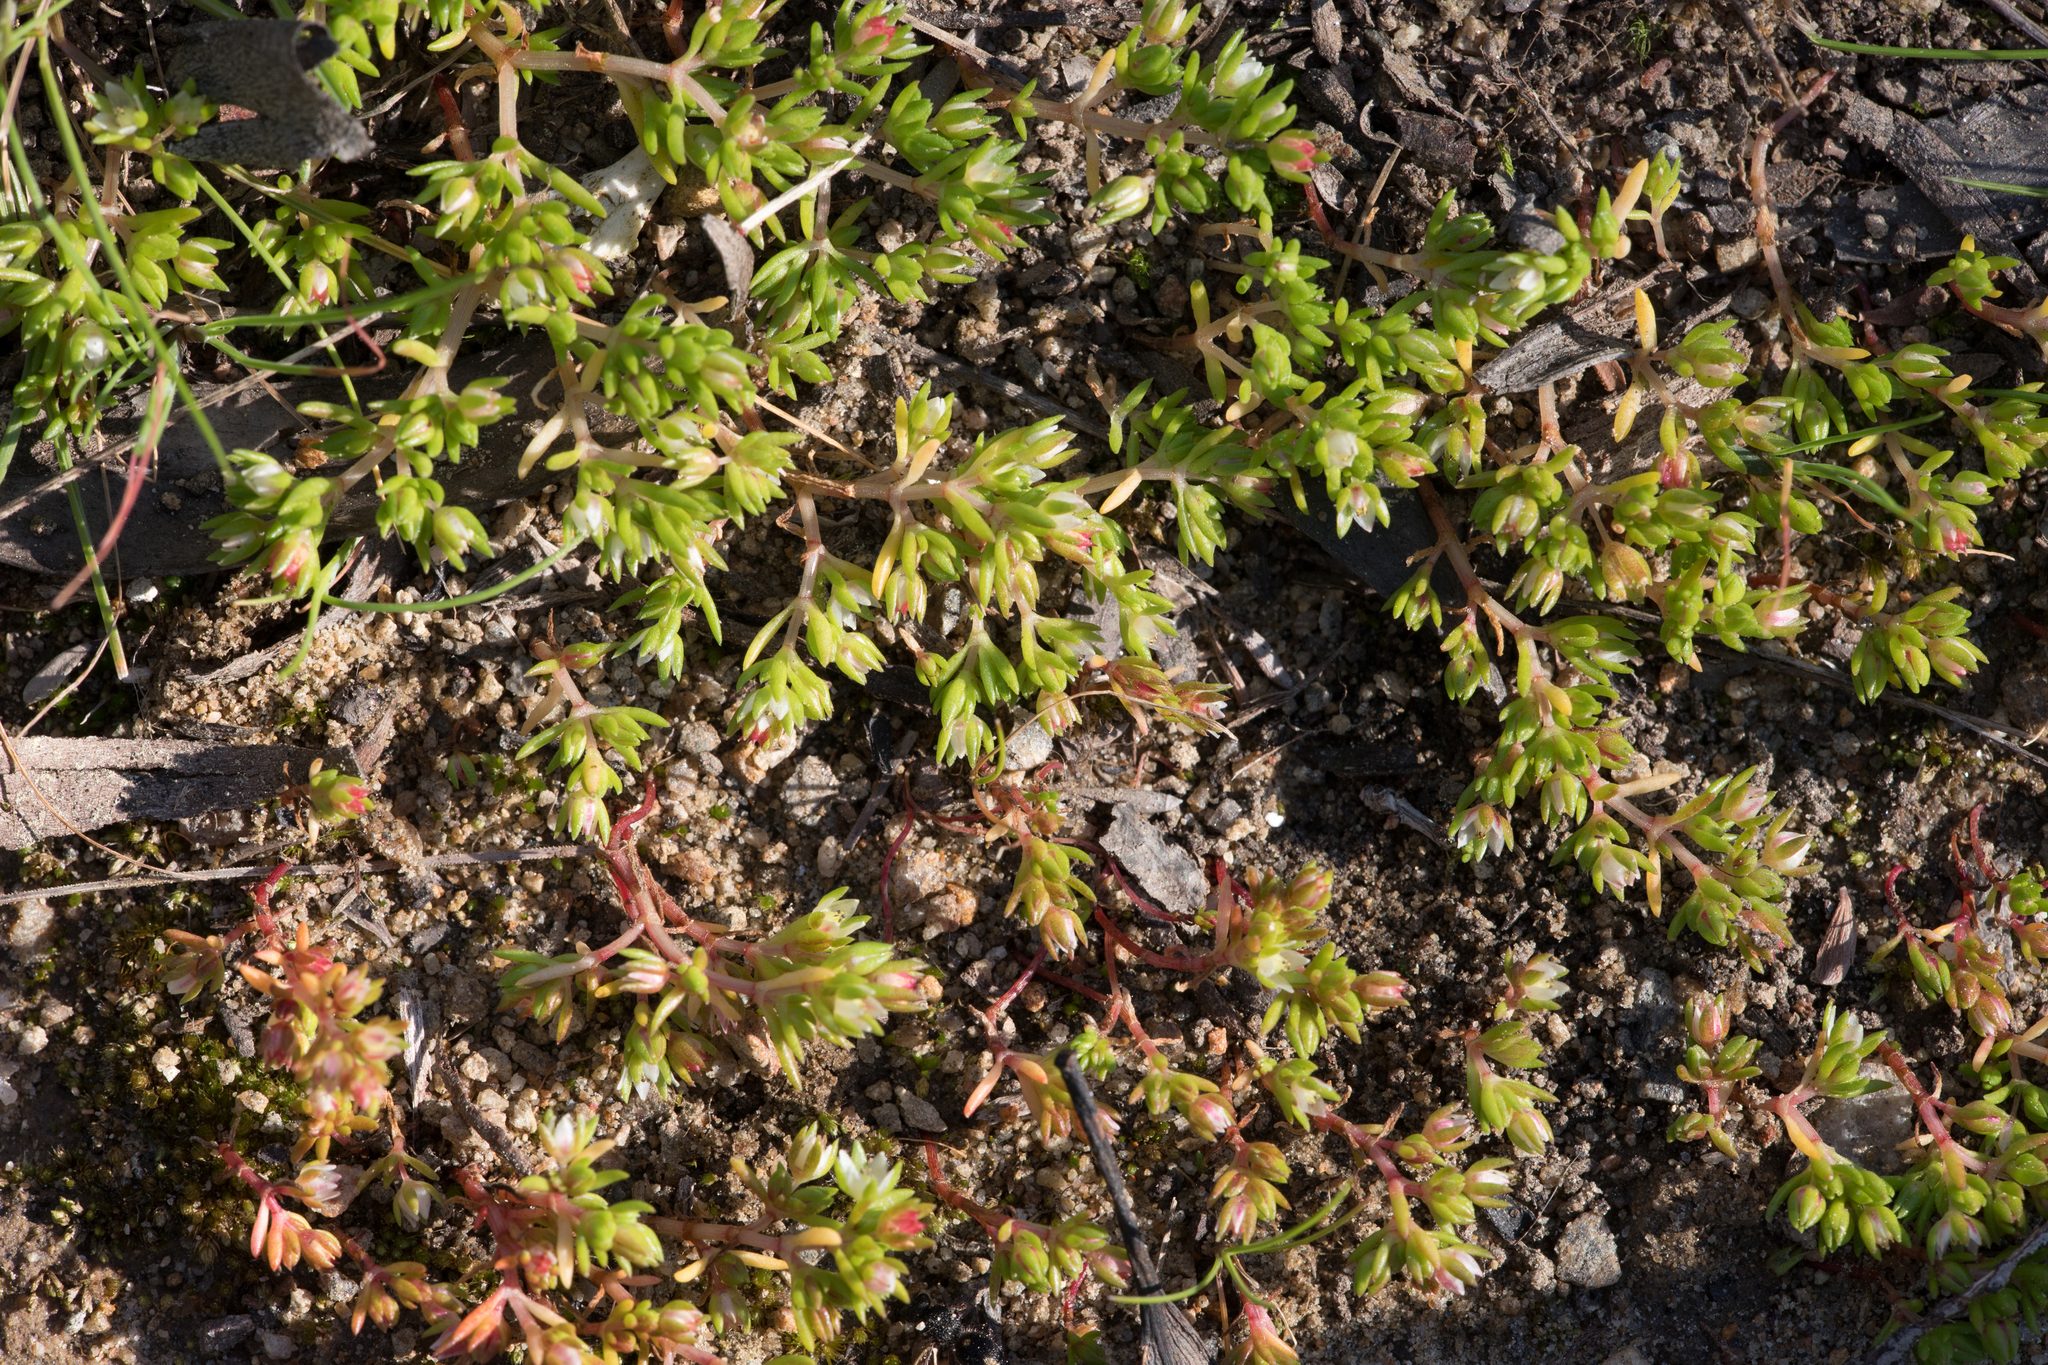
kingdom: Plantae
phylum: Tracheophyta
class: Magnoliopsida
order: Saxifragales
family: Crassulaceae
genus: Crassula
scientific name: Crassula decumbens
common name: Scilly pigmyweed
